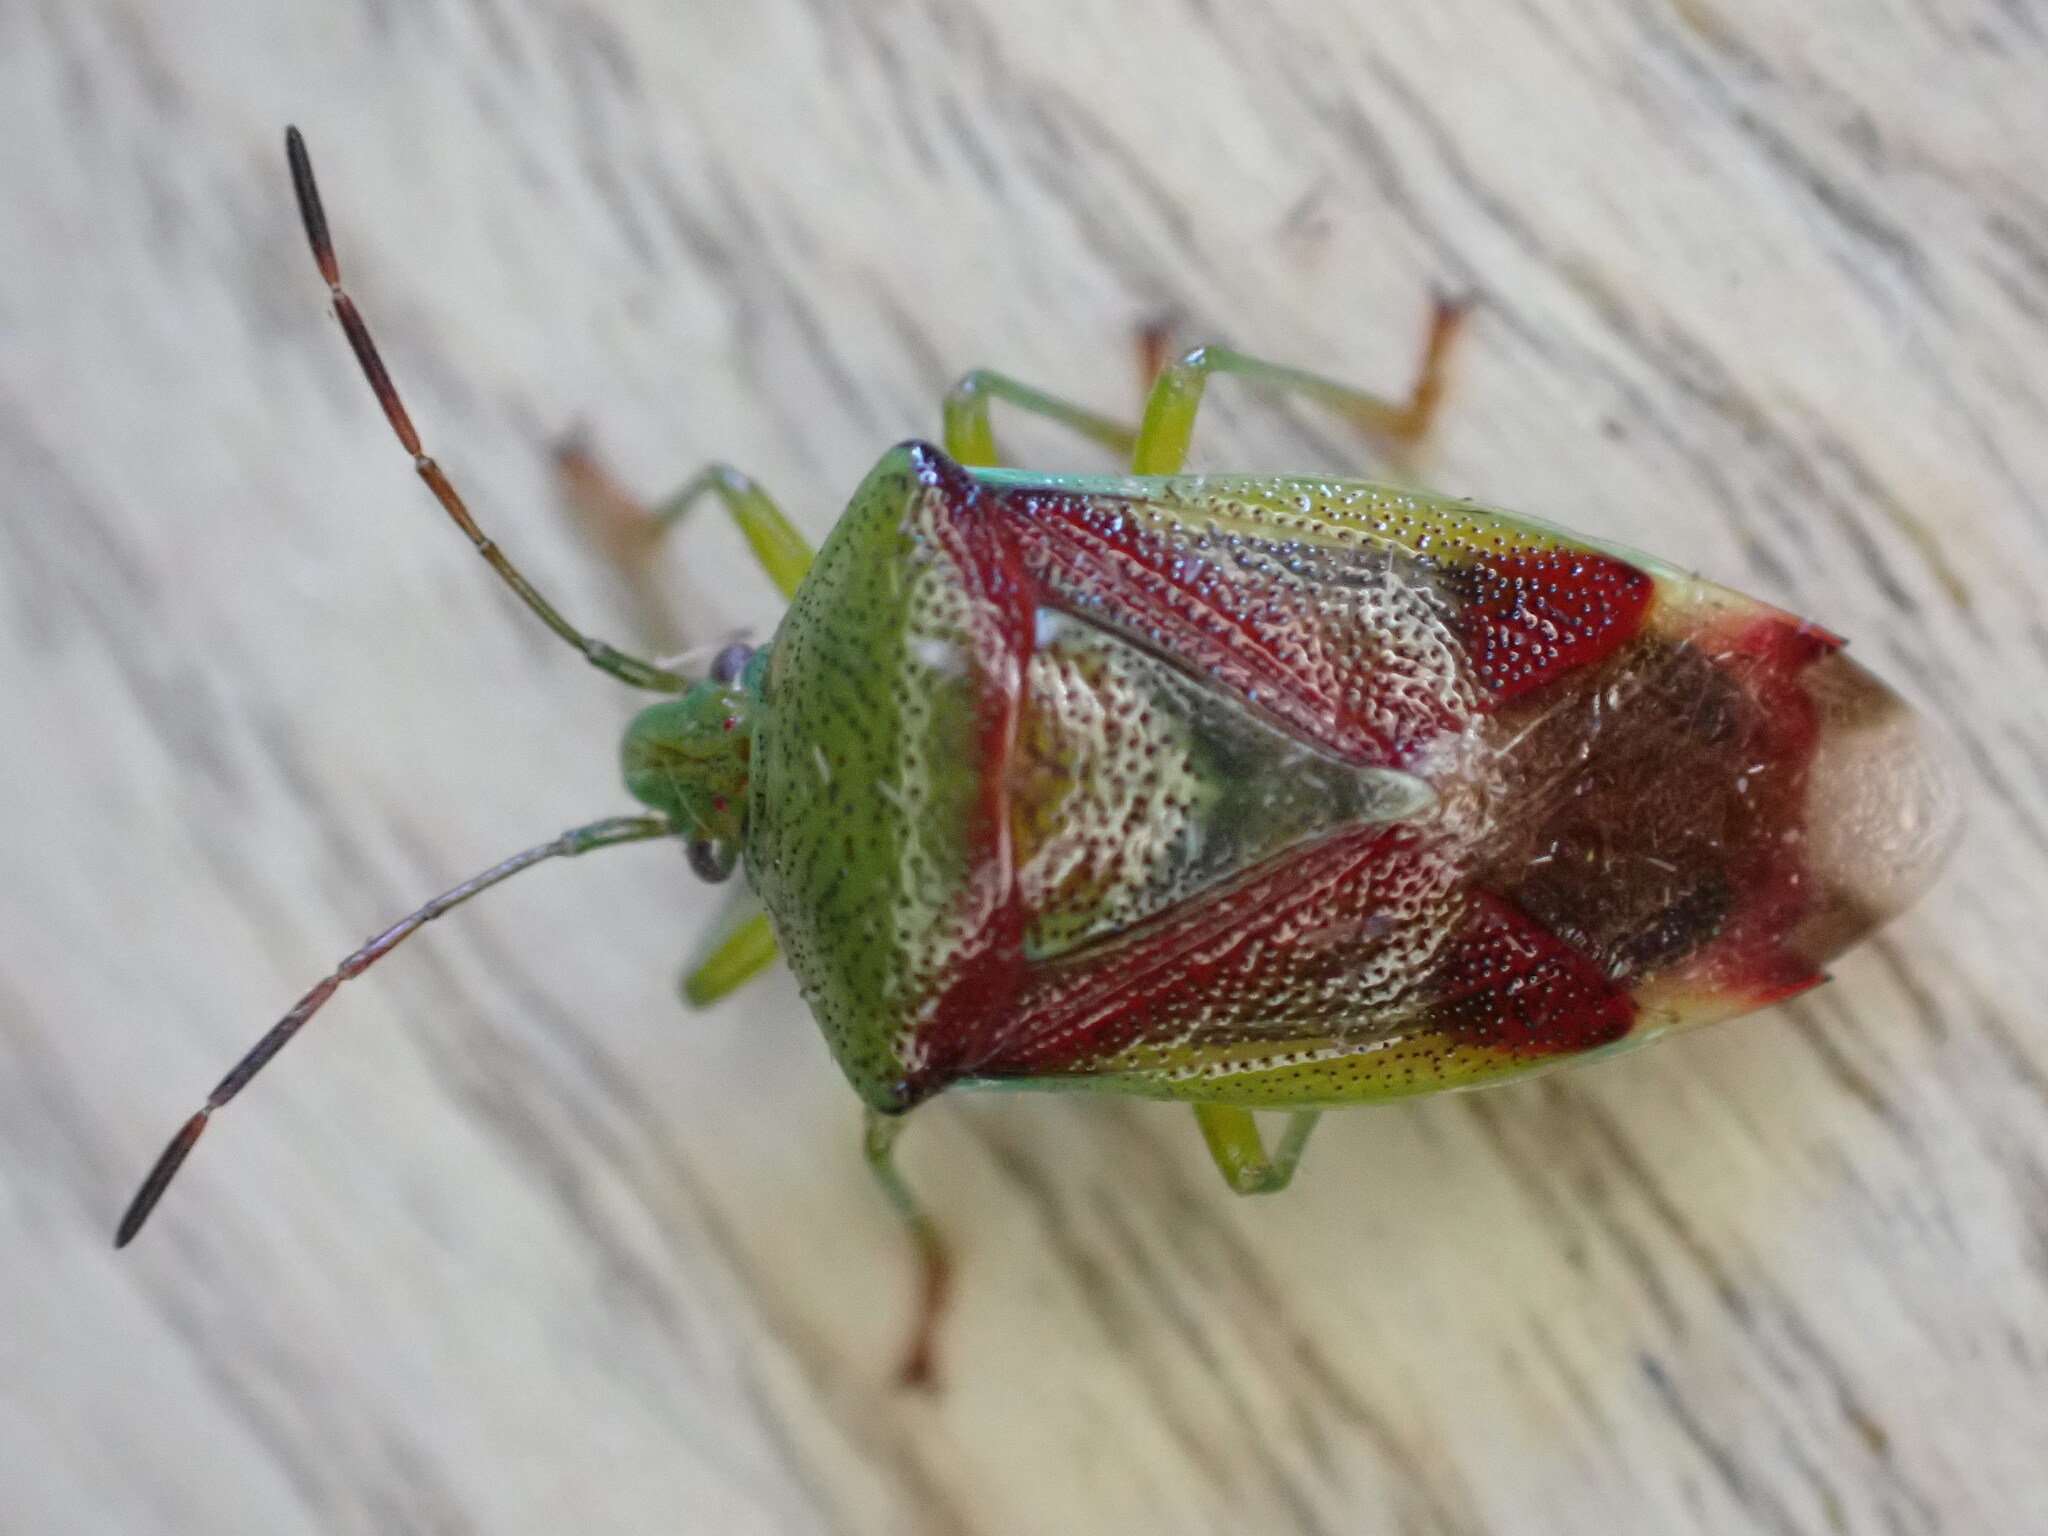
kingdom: Animalia
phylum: Arthropoda
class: Insecta
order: Hemiptera
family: Acanthosomatidae
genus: Elasmostethus
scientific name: Elasmostethus interstinctus
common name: Birch shieldbug
